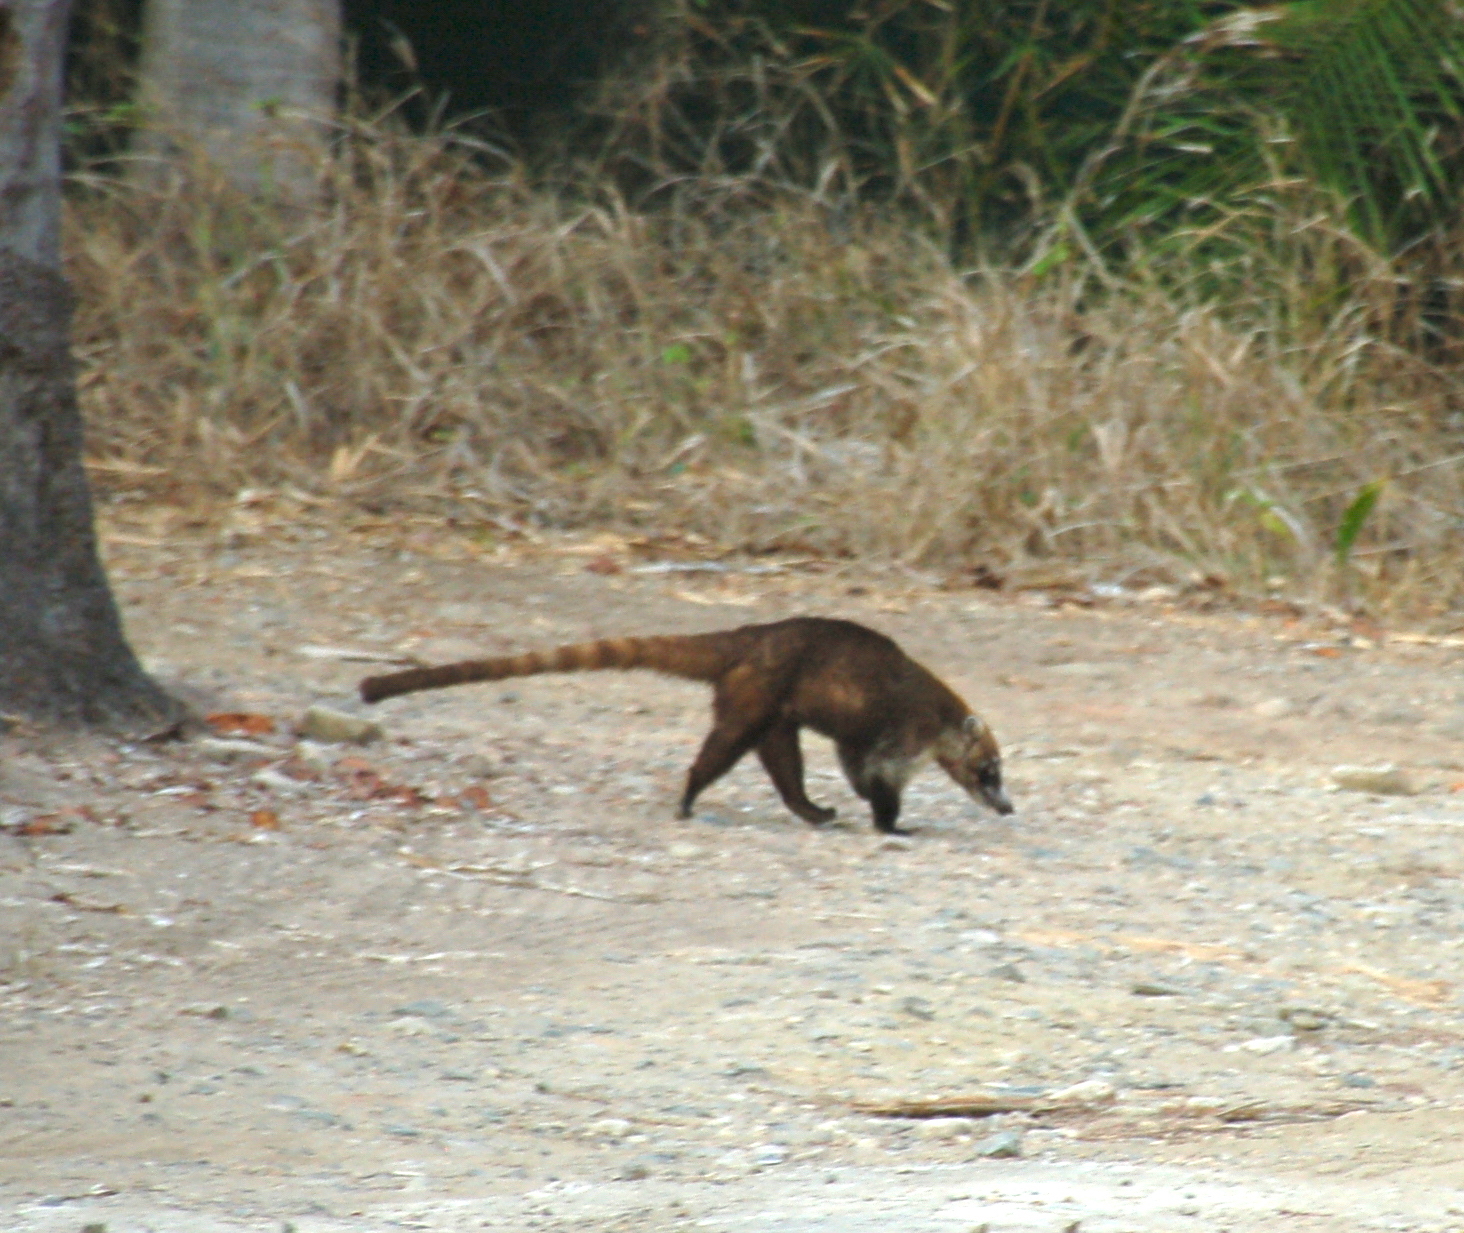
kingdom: Animalia
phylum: Chordata
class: Mammalia
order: Carnivora
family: Procyonidae
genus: Nasua
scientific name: Nasua narica
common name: White-nosed coati
